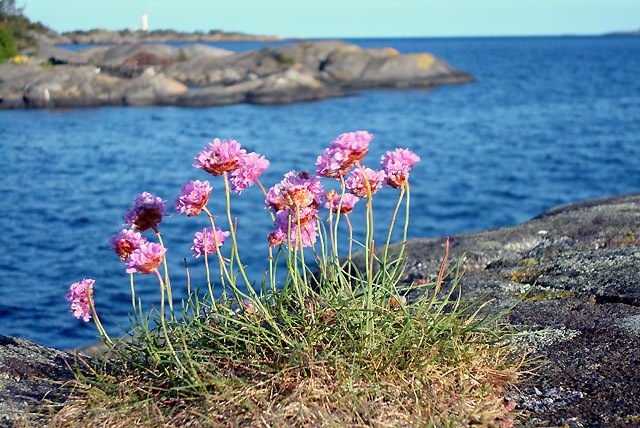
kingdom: Plantae
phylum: Tracheophyta
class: Magnoliopsida
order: Caryophyllales
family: Plumbaginaceae
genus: Armeria
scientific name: Armeria maritima
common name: Thrift
